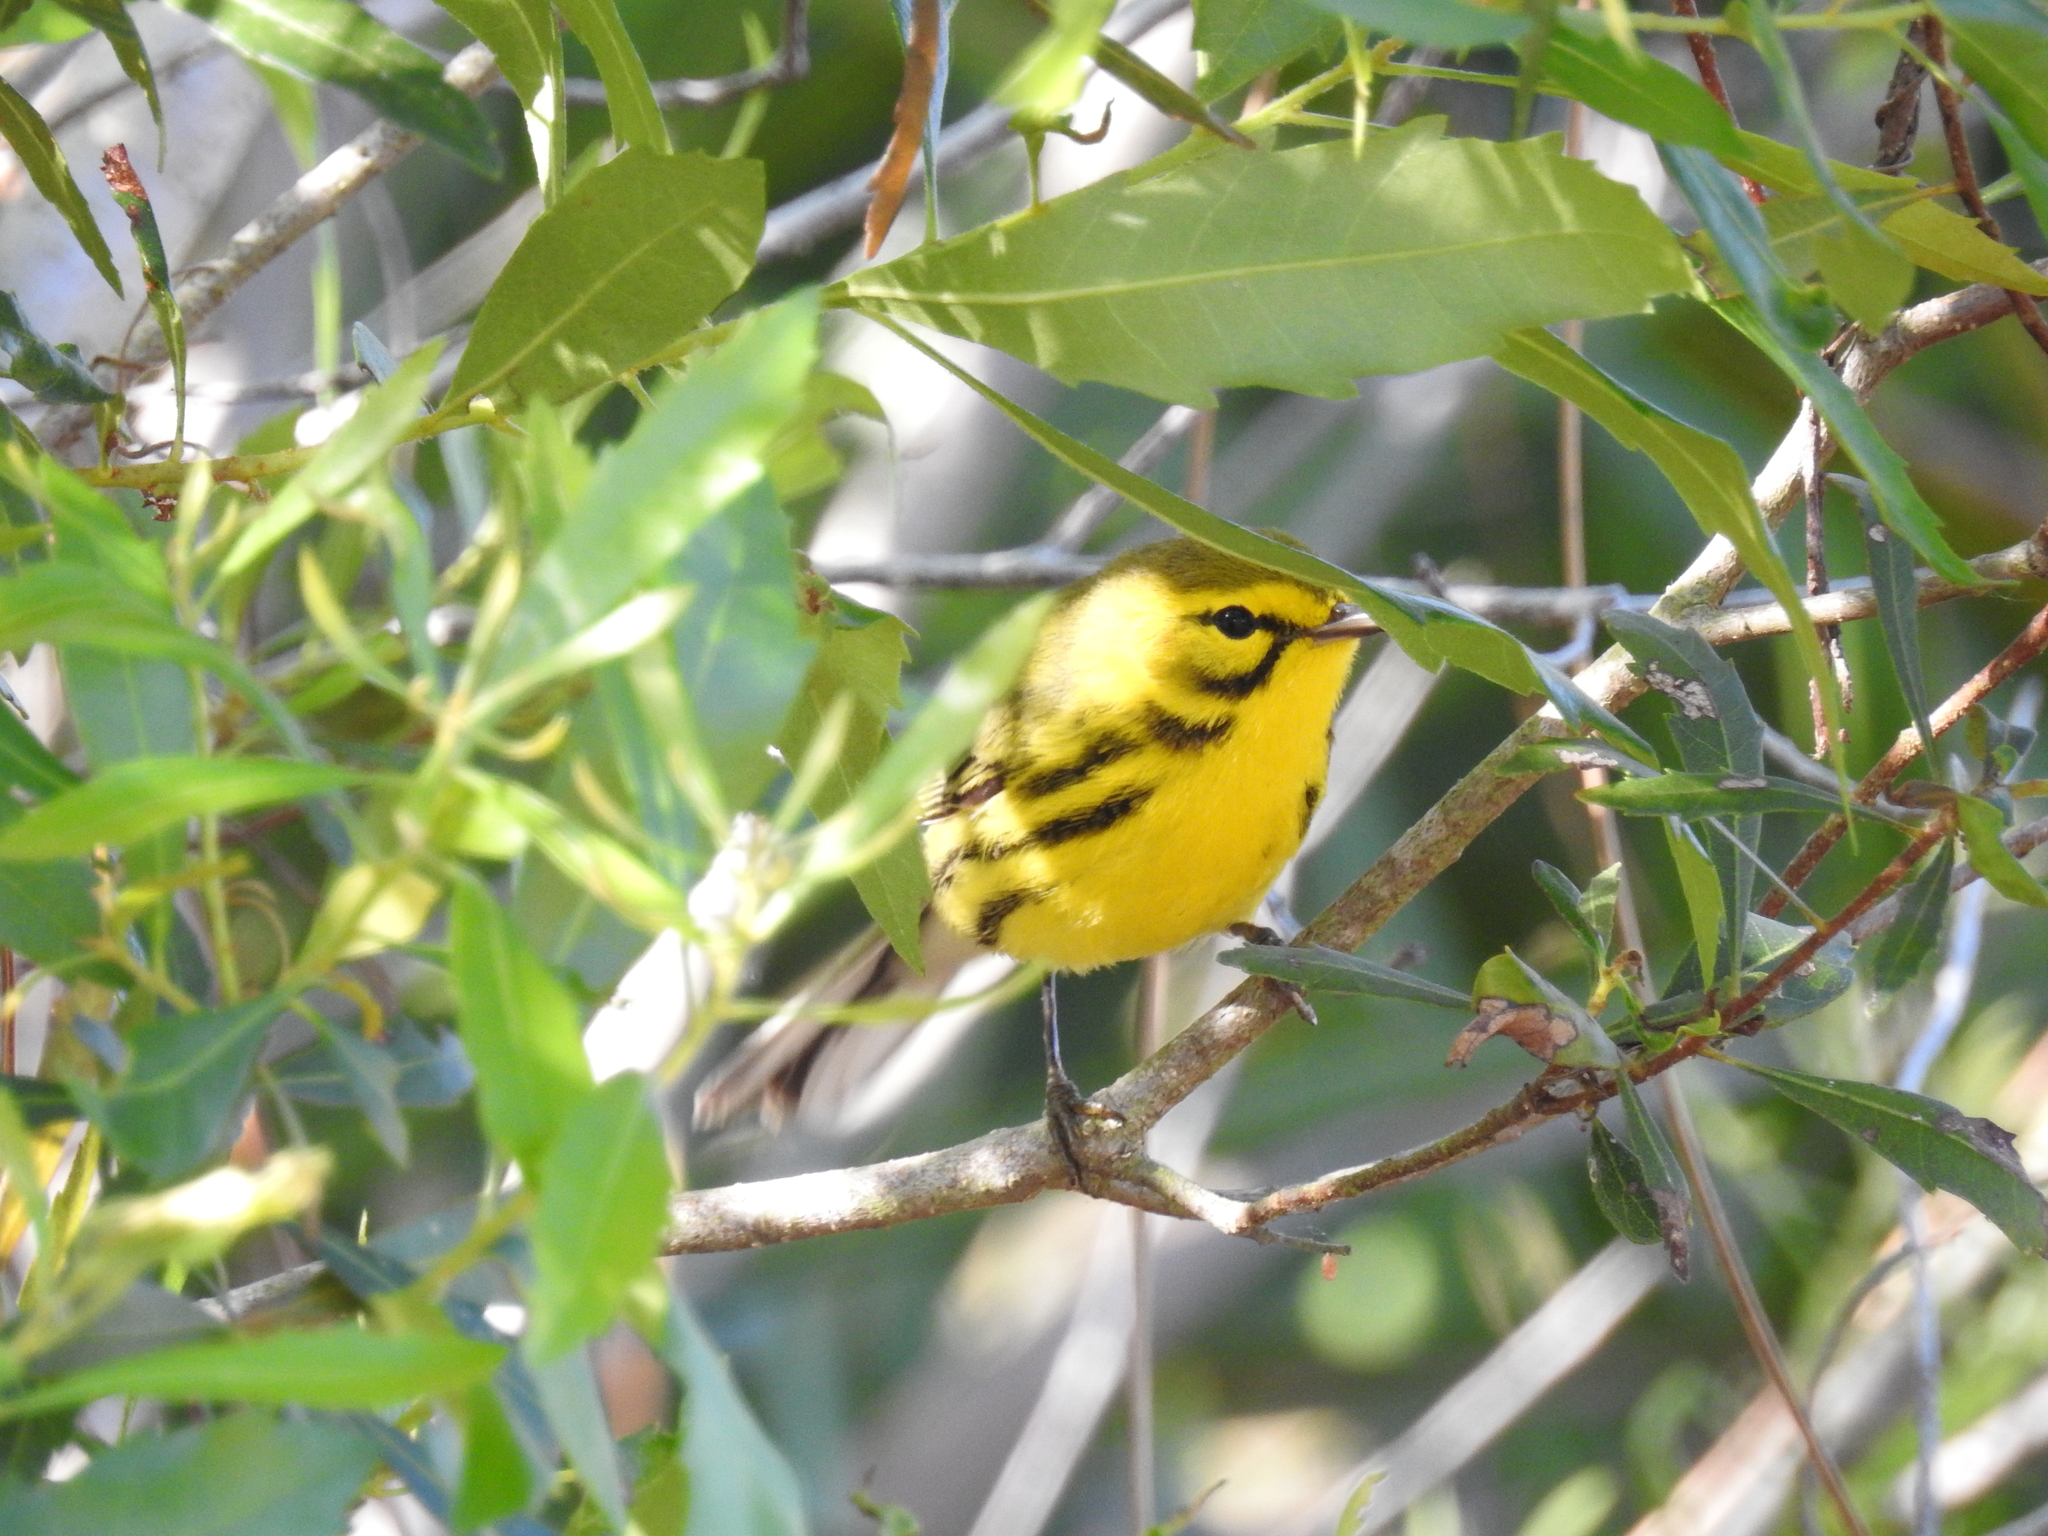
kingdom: Animalia
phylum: Chordata
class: Aves
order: Passeriformes
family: Parulidae
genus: Setophaga
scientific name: Setophaga discolor
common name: Prairie warbler
